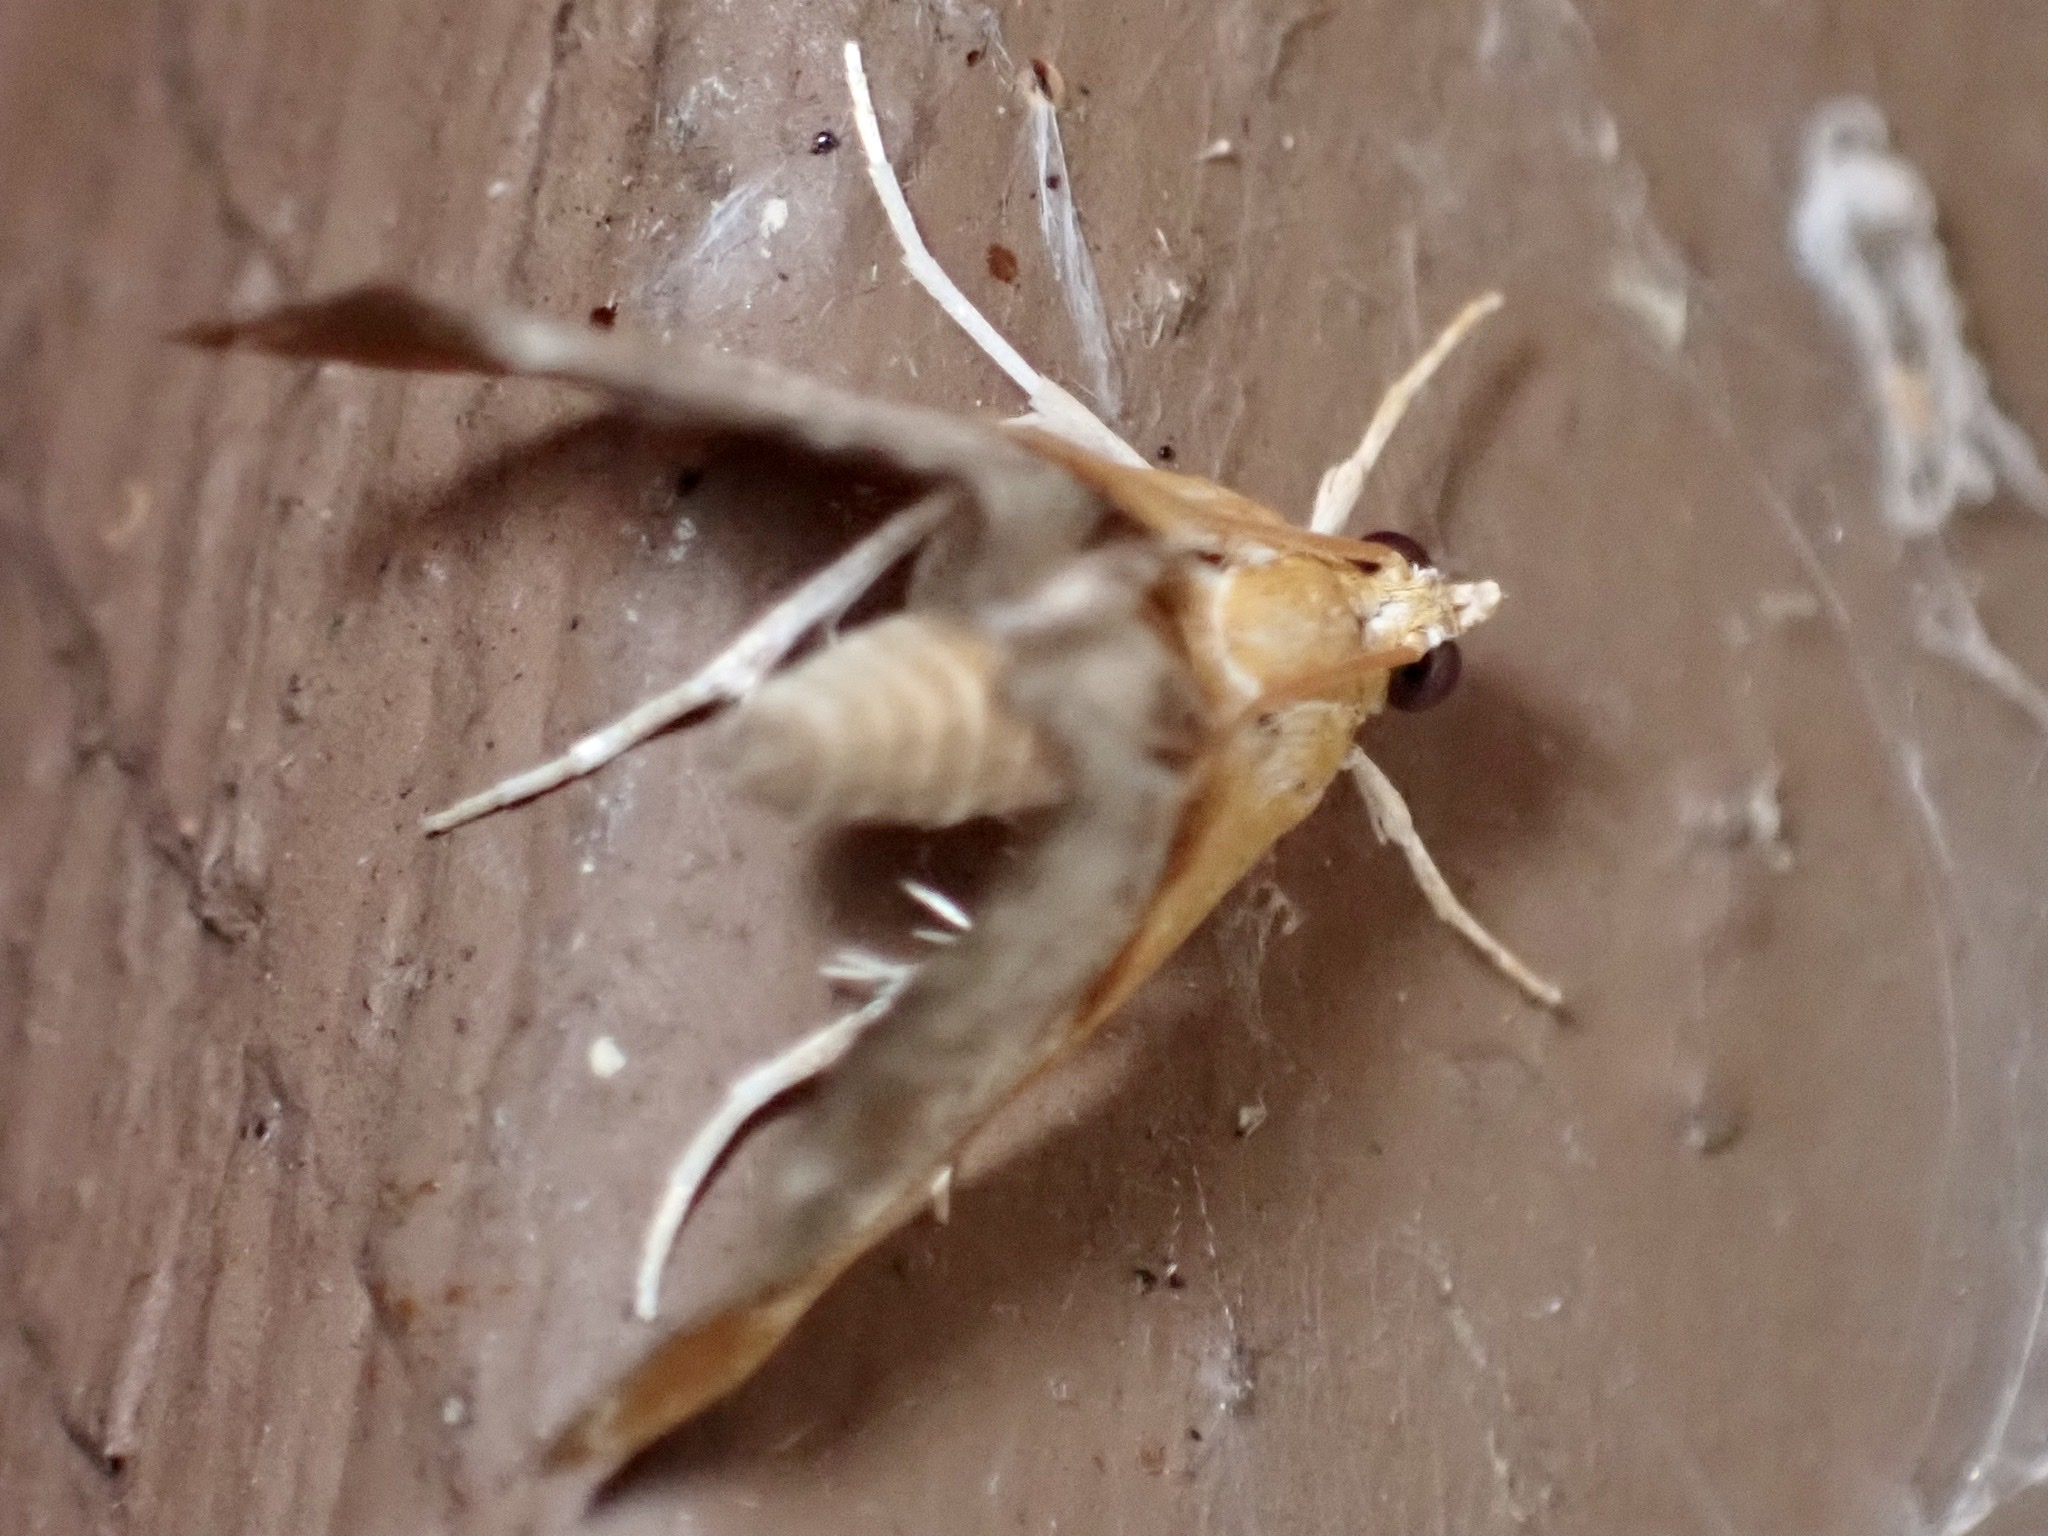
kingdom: Animalia
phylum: Arthropoda
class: Insecta
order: Lepidoptera
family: Crambidae
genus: Chalcoela
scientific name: Chalcoela iphitalis
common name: Sooty-winged chalcoela moth
